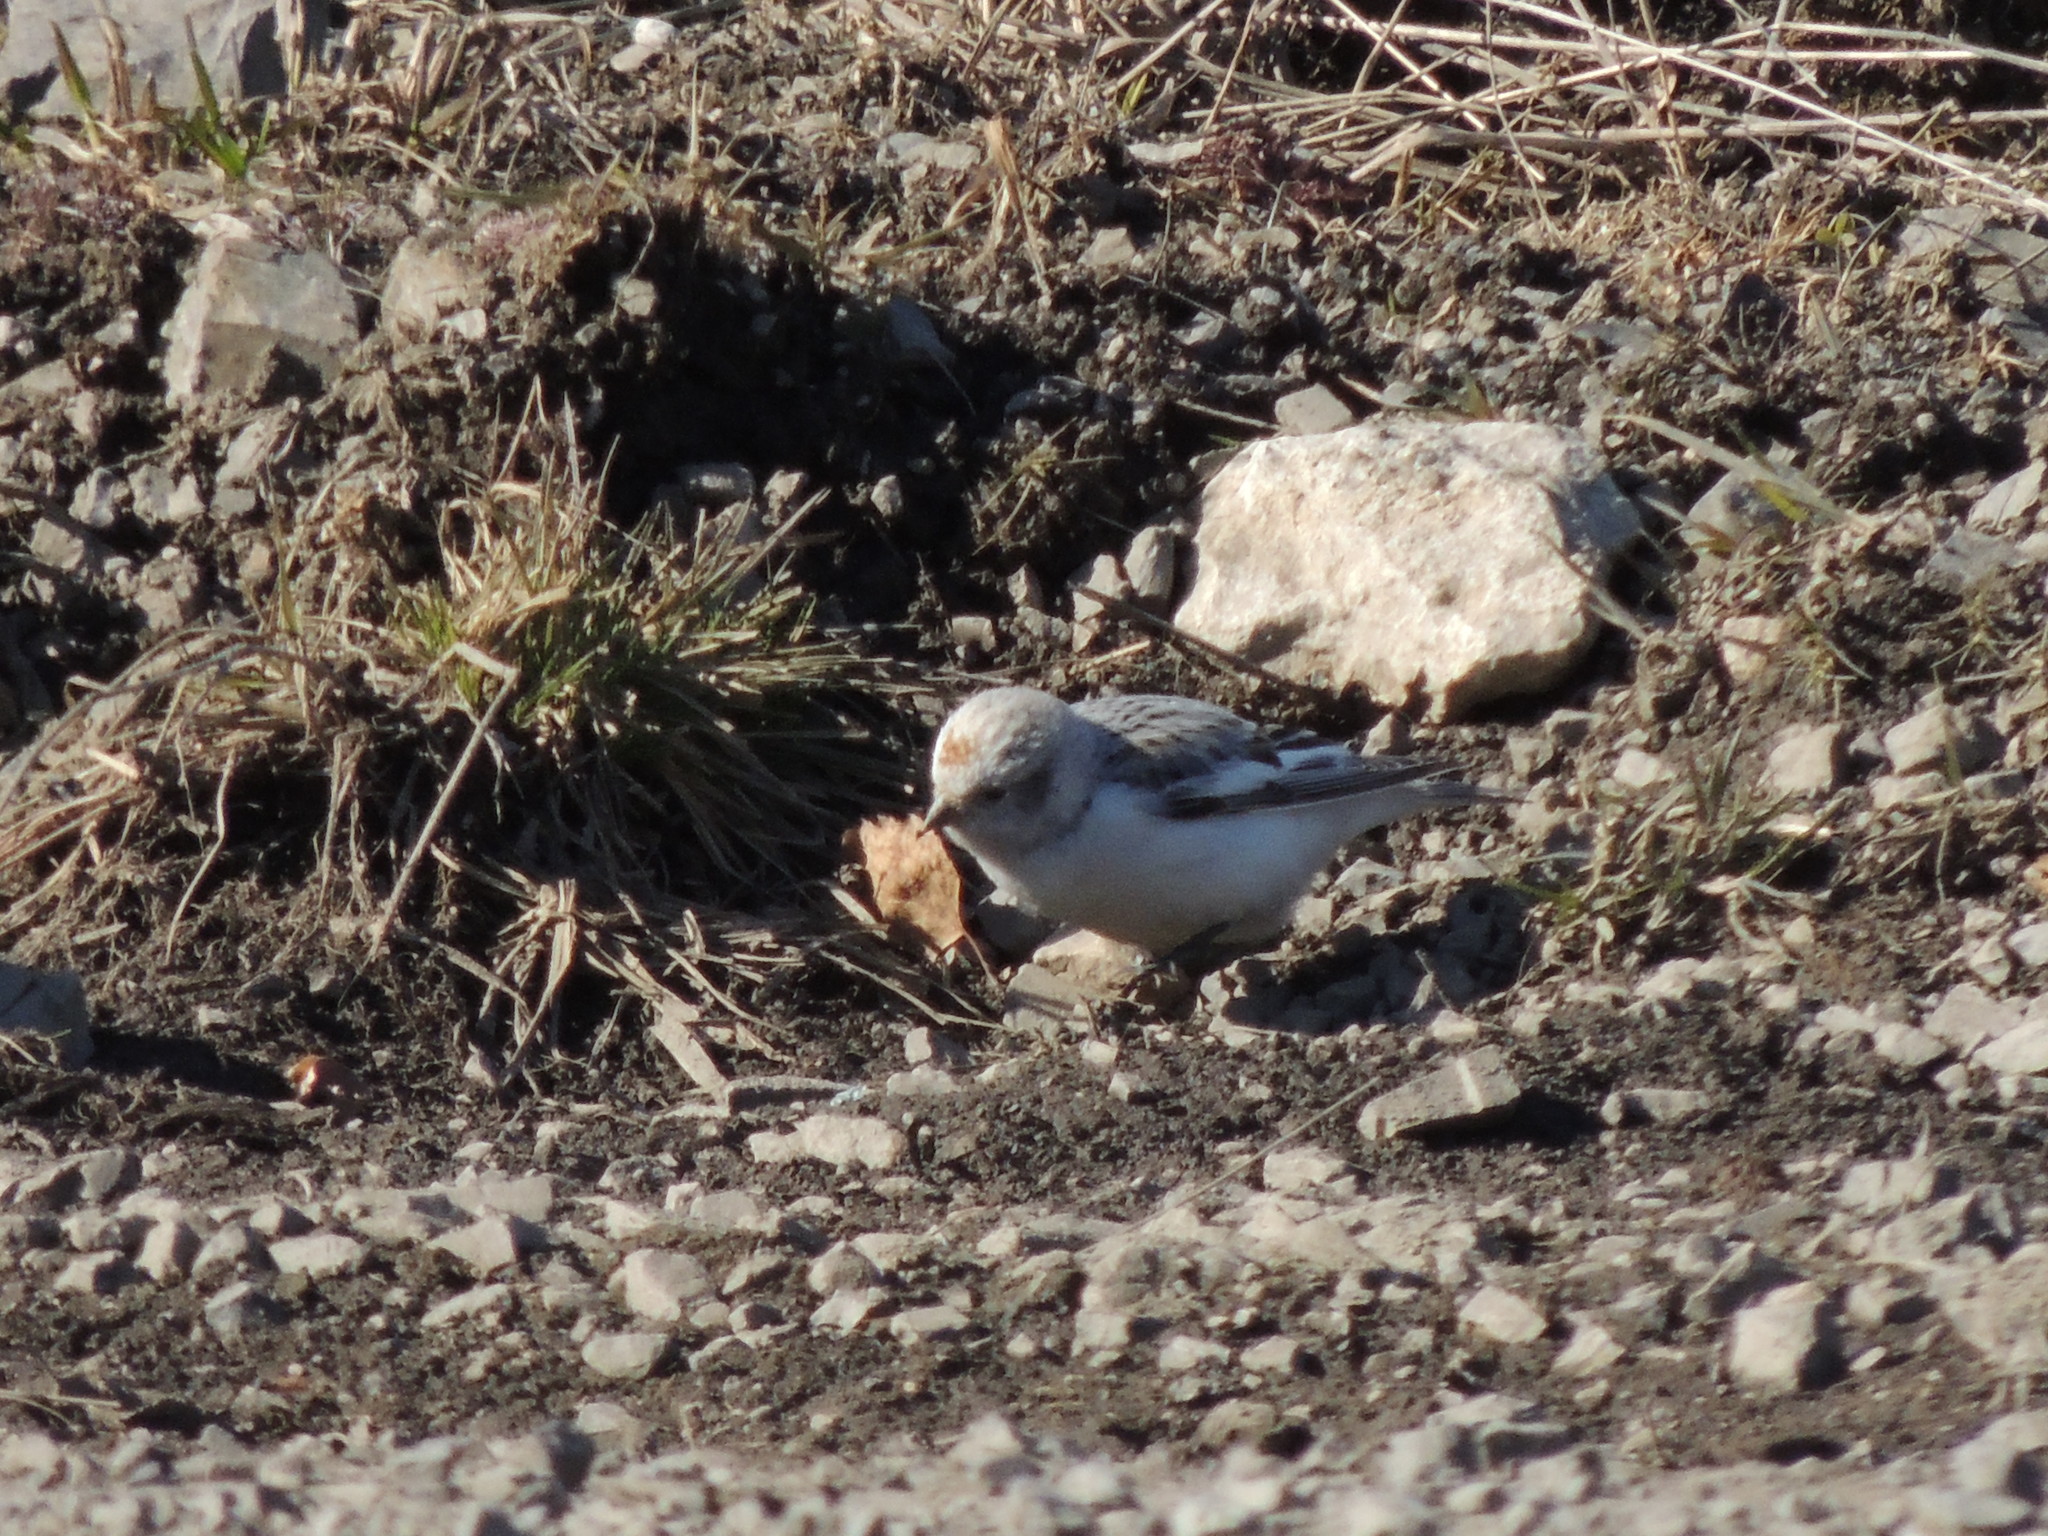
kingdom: Animalia
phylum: Chordata
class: Aves
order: Passeriformes
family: Calcariidae
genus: Plectrophenax
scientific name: Plectrophenax nivalis
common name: Snow bunting
